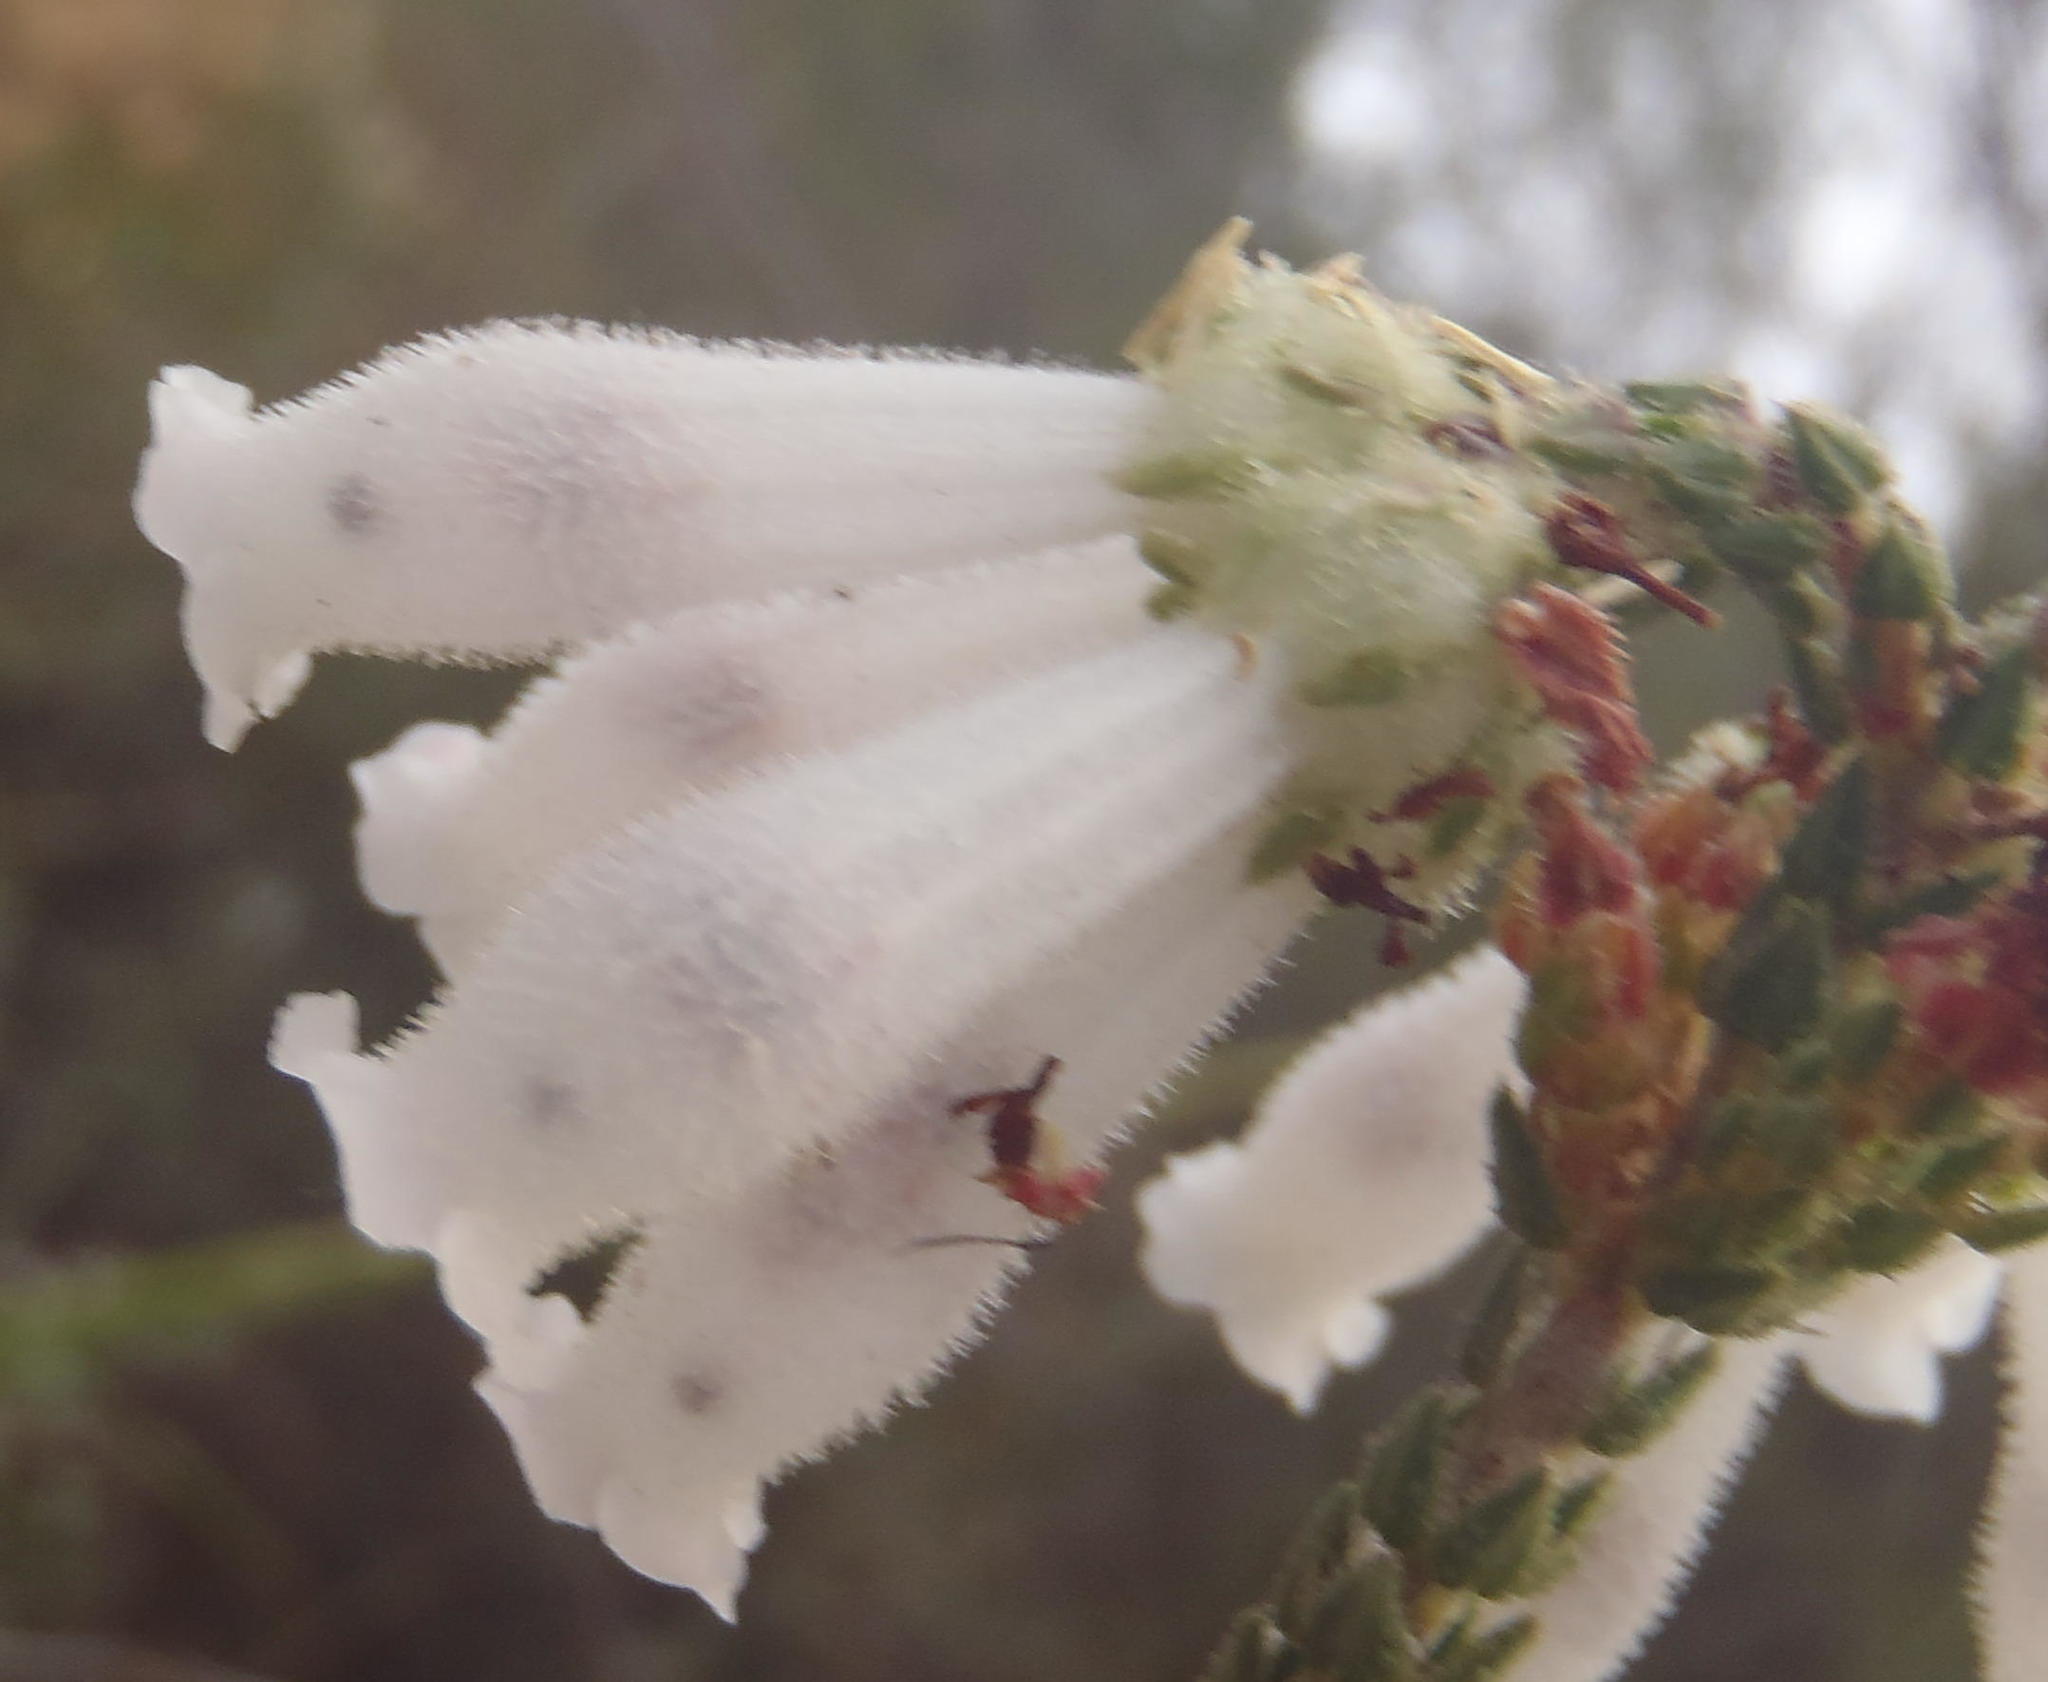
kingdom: Plantae
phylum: Tracheophyta
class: Magnoliopsida
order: Ericales
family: Ericaceae
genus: Erica
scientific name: Erica pectinifolia
